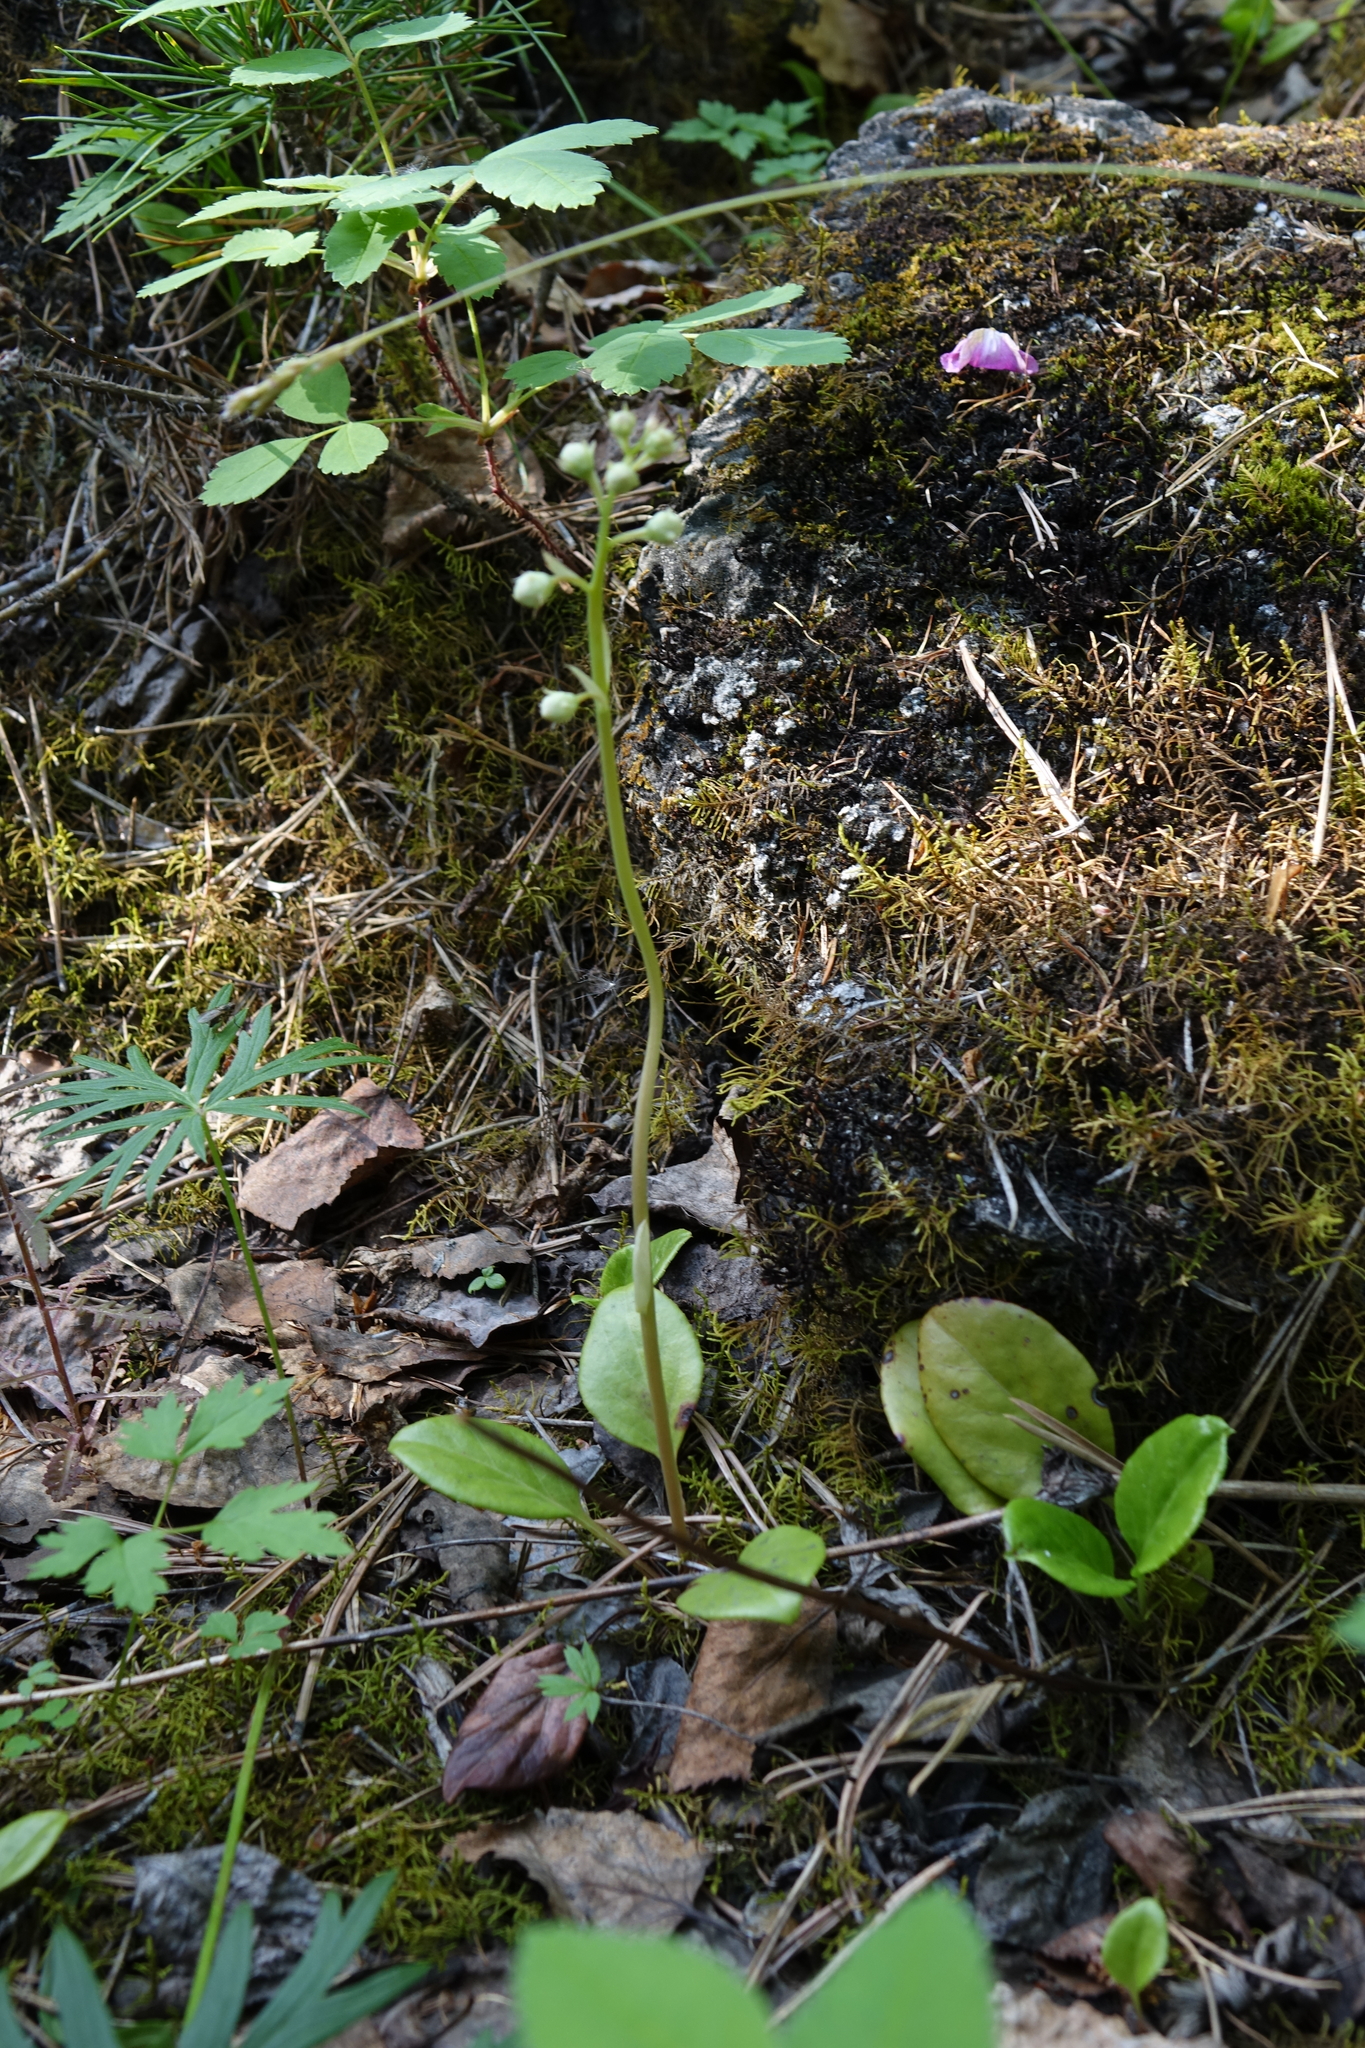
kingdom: Plantae
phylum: Tracheophyta
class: Magnoliopsida
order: Ericales
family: Ericaceae
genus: Pyrola
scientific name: Pyrola rotundifolia
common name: Round-leaved wintergreen
